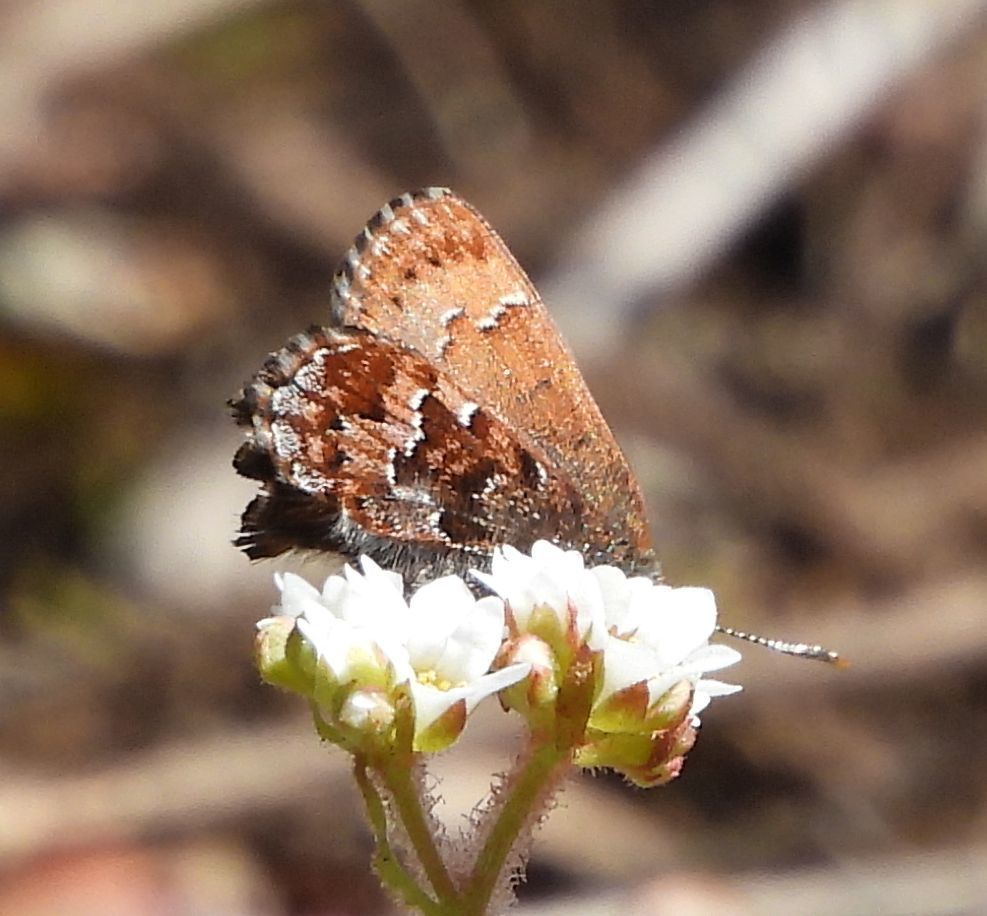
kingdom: Animalia
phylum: Arthropoda
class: Insecta
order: Lepidoptera
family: Lycaenidae
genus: Incisalia
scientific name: Incisalia niphon
